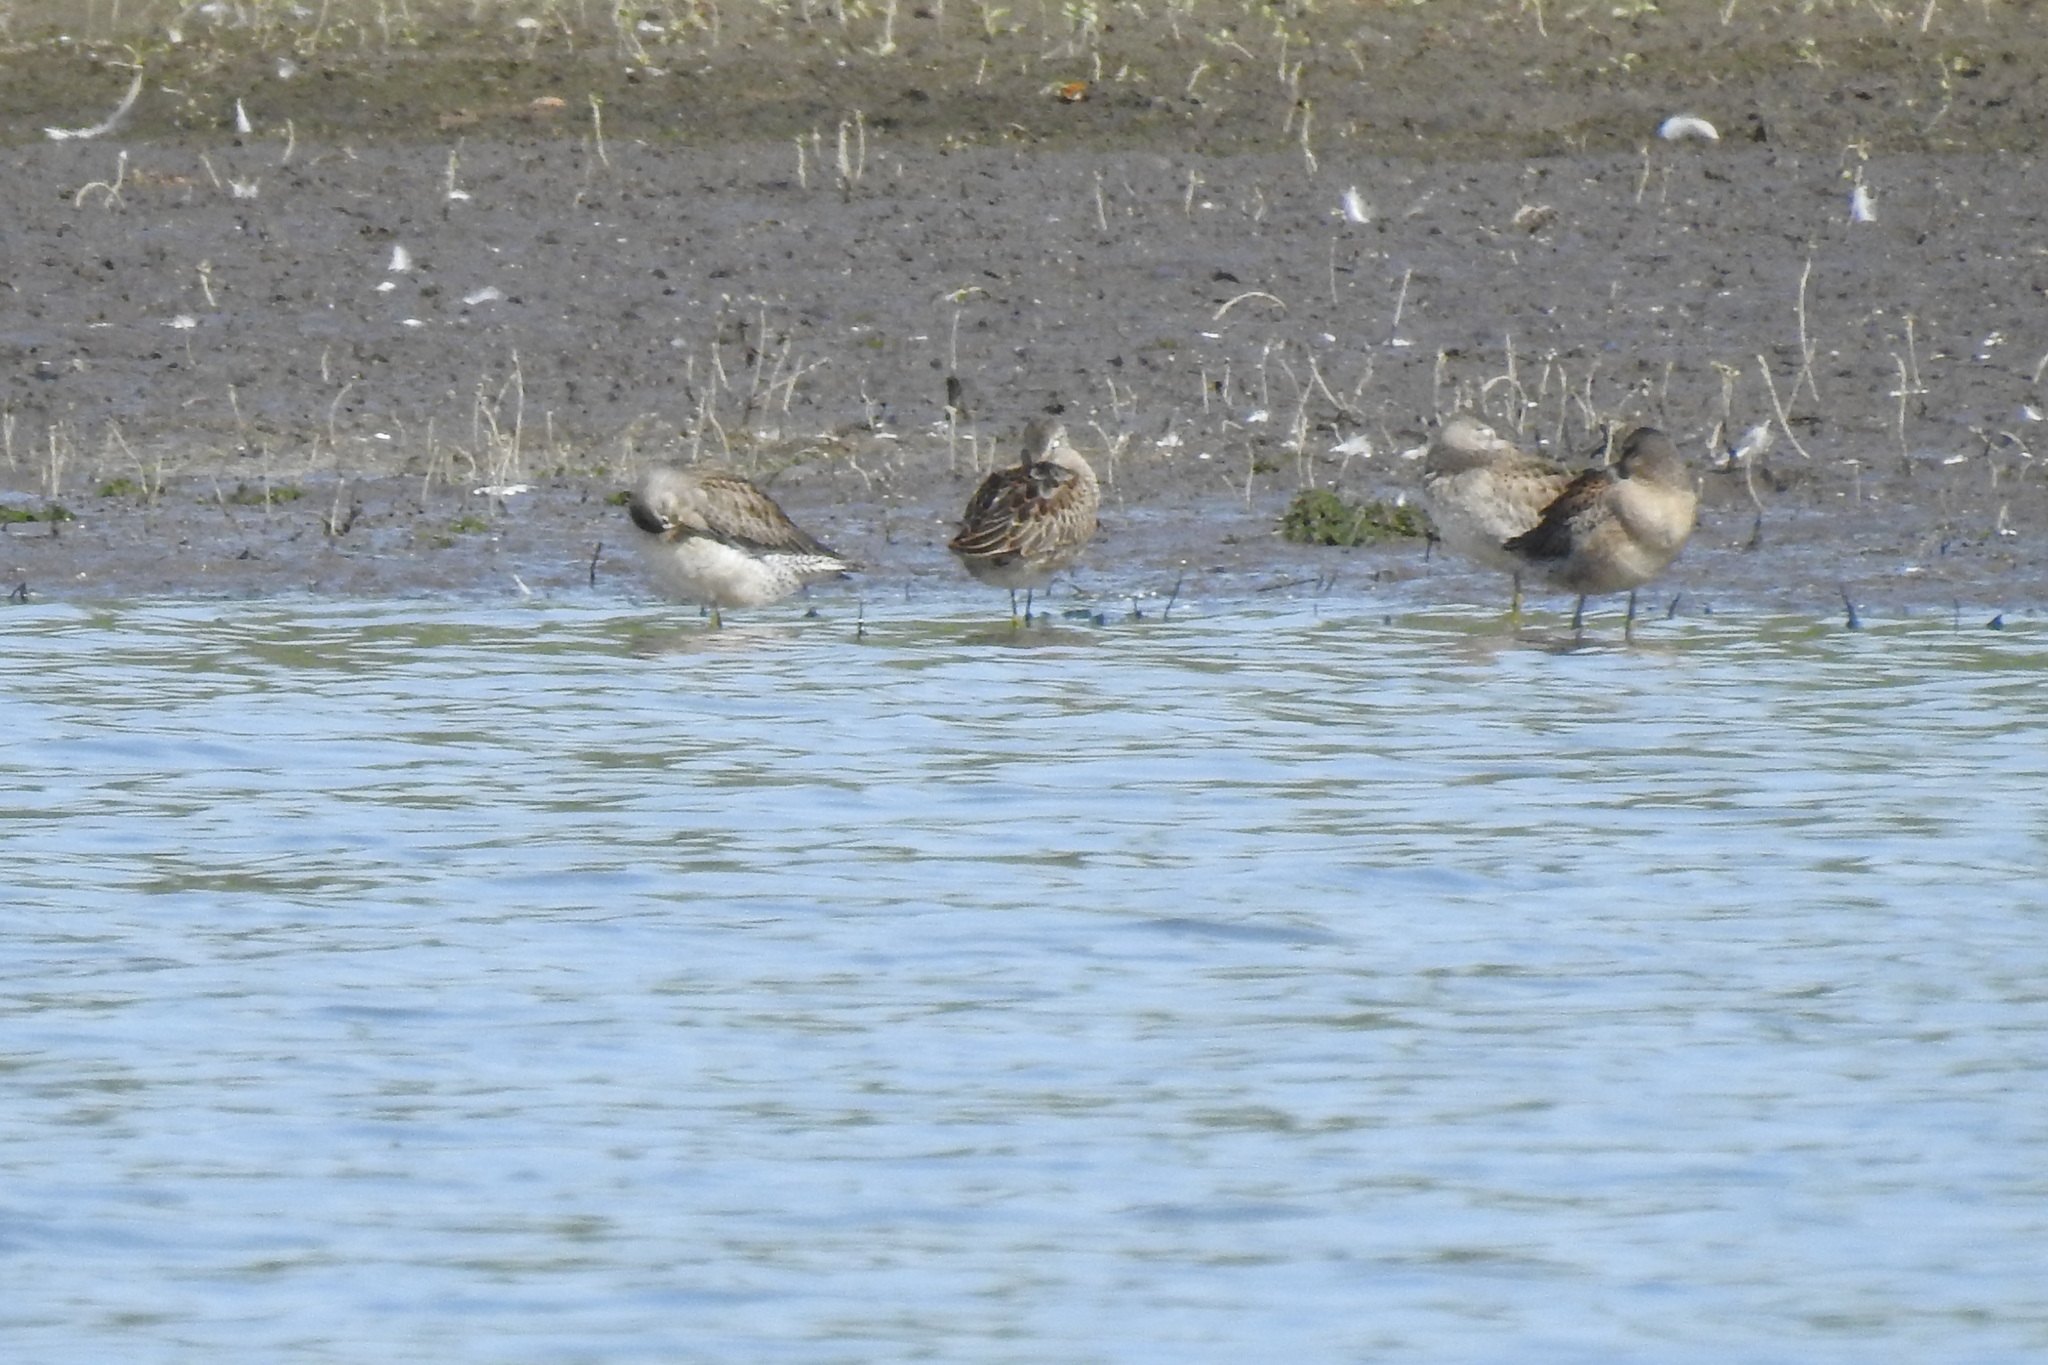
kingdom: Animalia
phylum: Chordata
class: Aves
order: Charadriiformes
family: Scolopacidae
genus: Limnodromus
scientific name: Limnodromus scolopaceus
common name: Long-billed dowitcher
